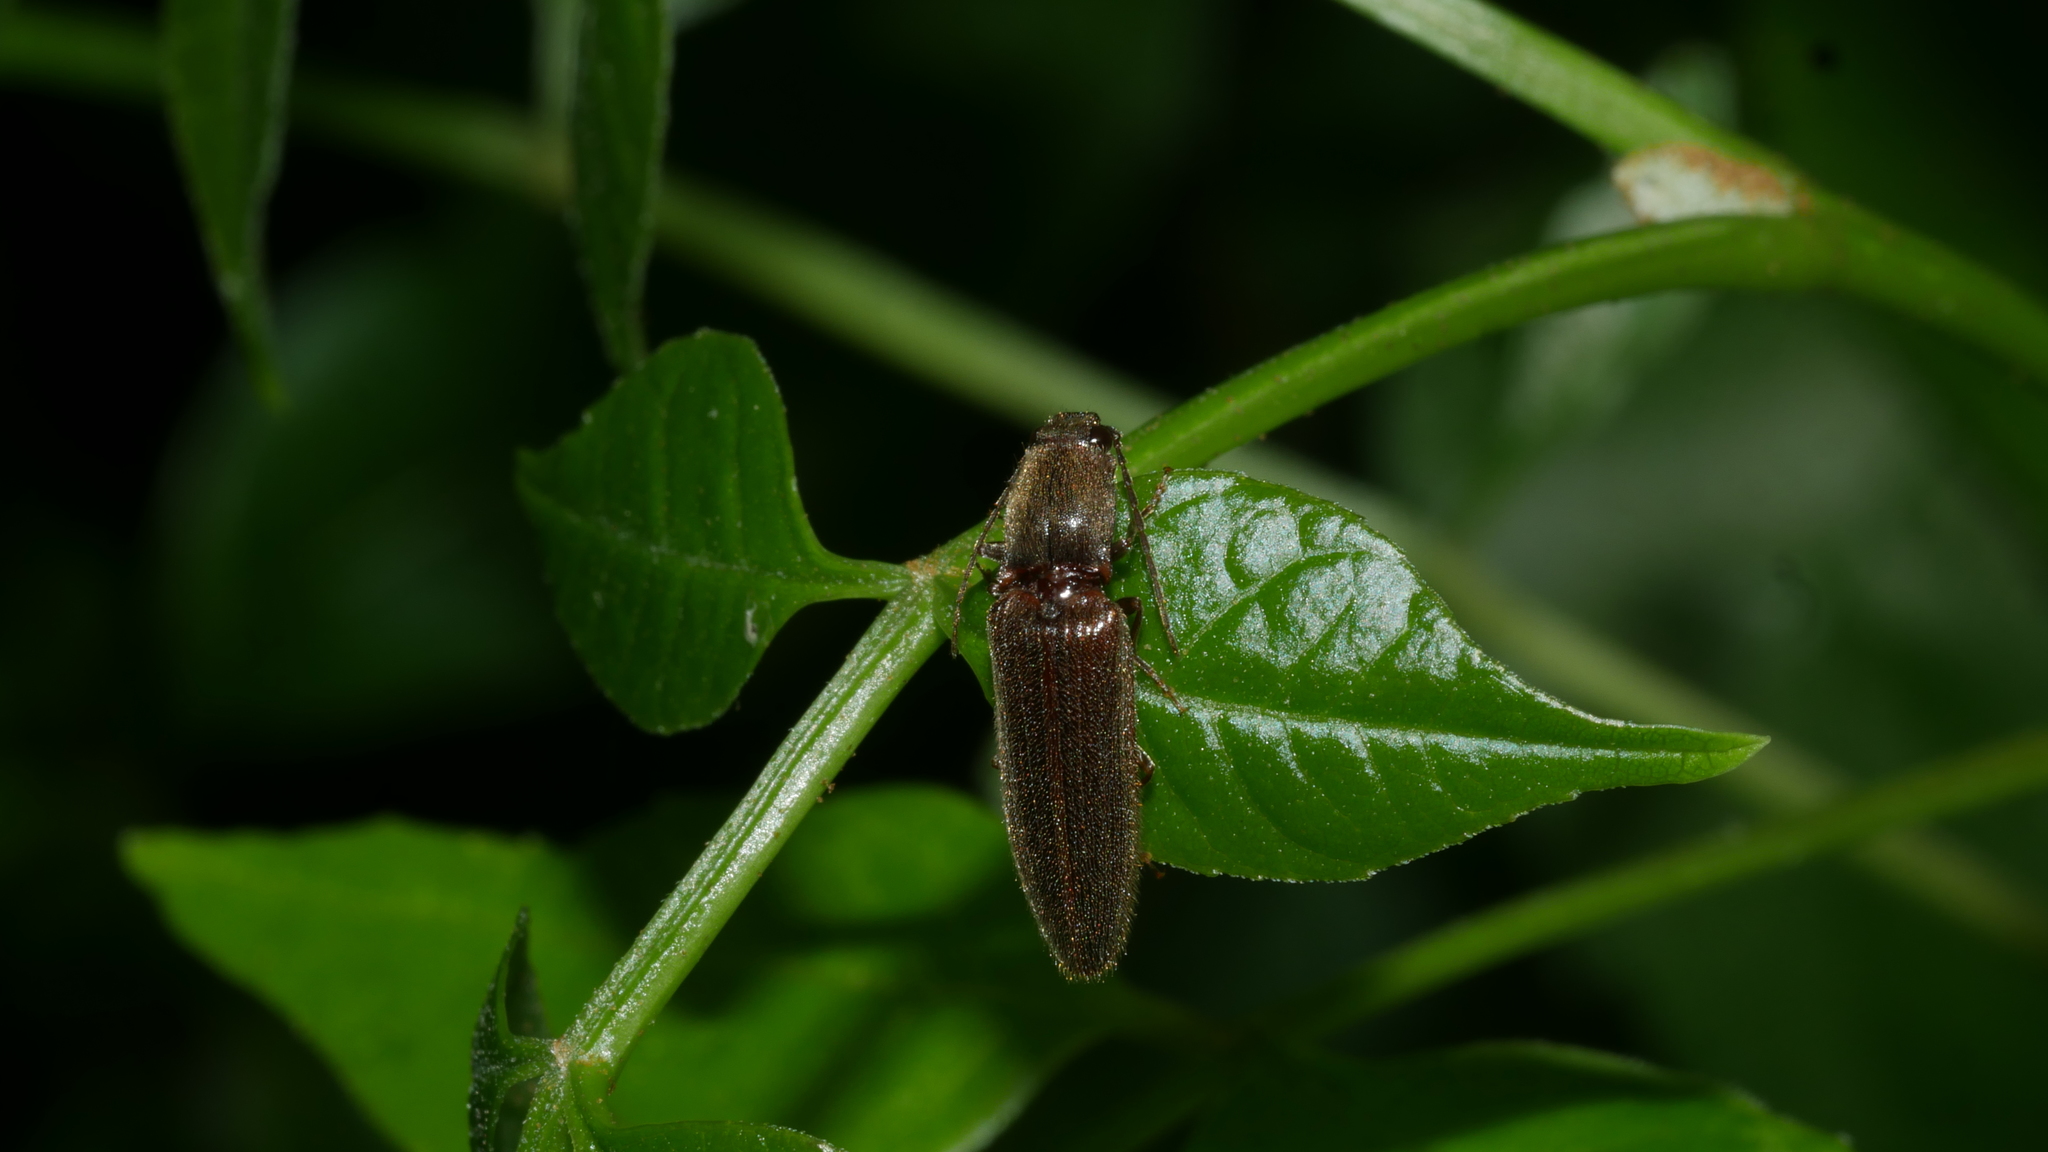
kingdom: Animalia
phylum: Arthropoda
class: Insecta
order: Coleoptera
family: Elateridae
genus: Athous
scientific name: Athous brightwelli
